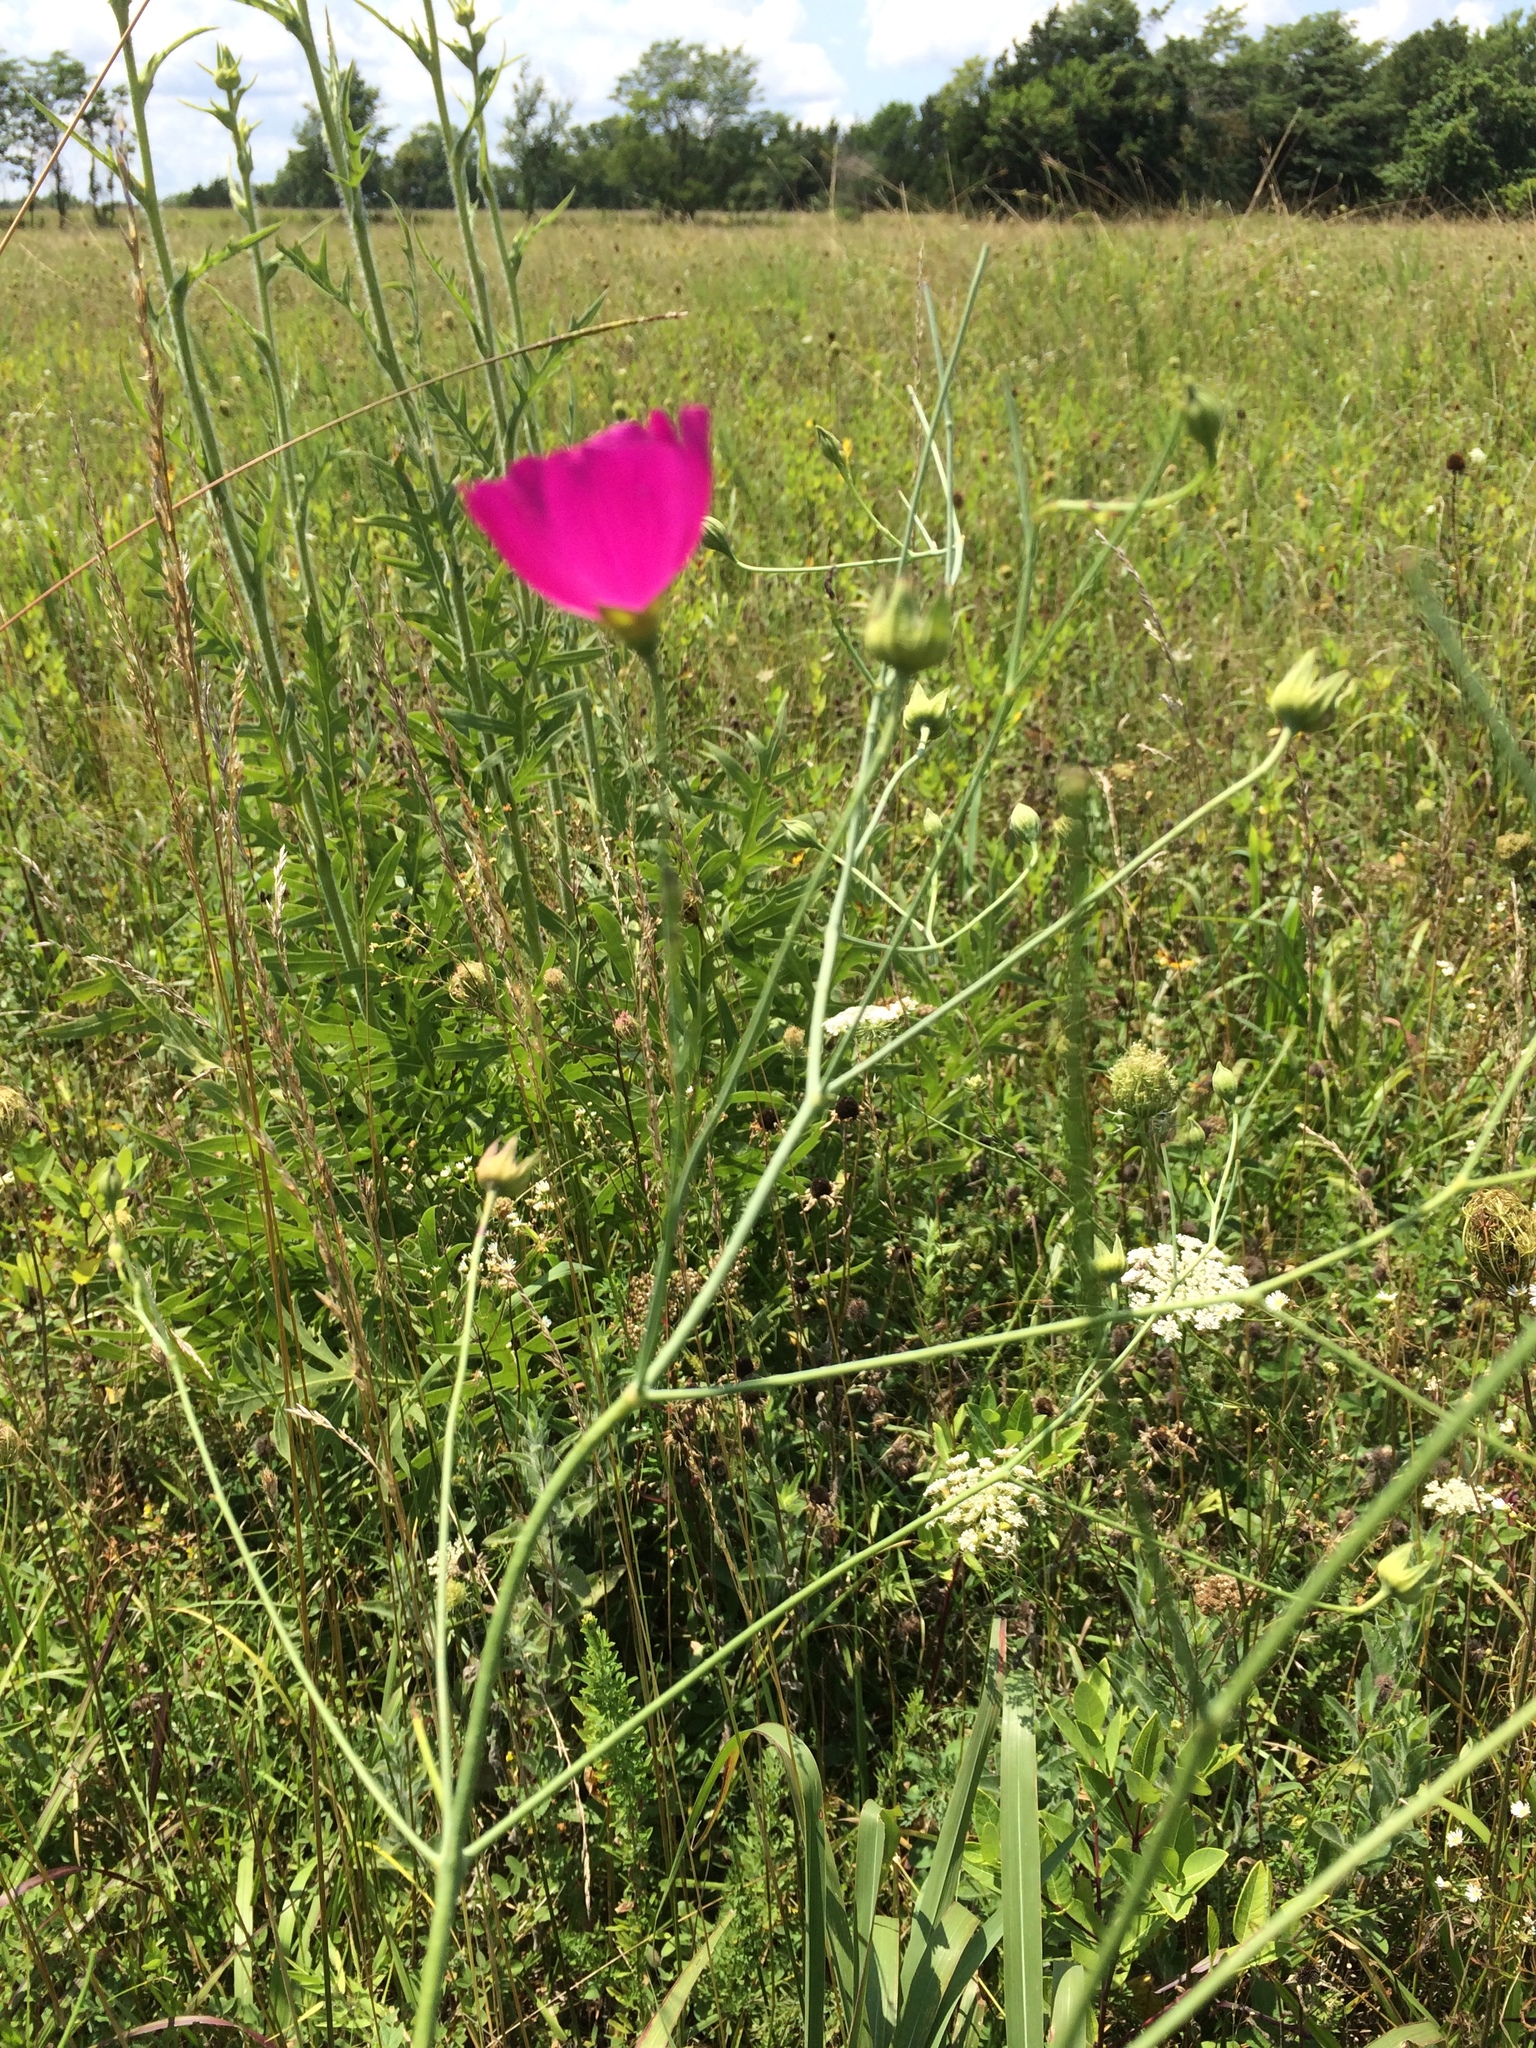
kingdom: Plantae
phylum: Tracheophyta
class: Magnoliopsida
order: Malvales
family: Malvaceae
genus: Callirhoe
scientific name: Callirhoe digitata
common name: Finger poppy-mallow
